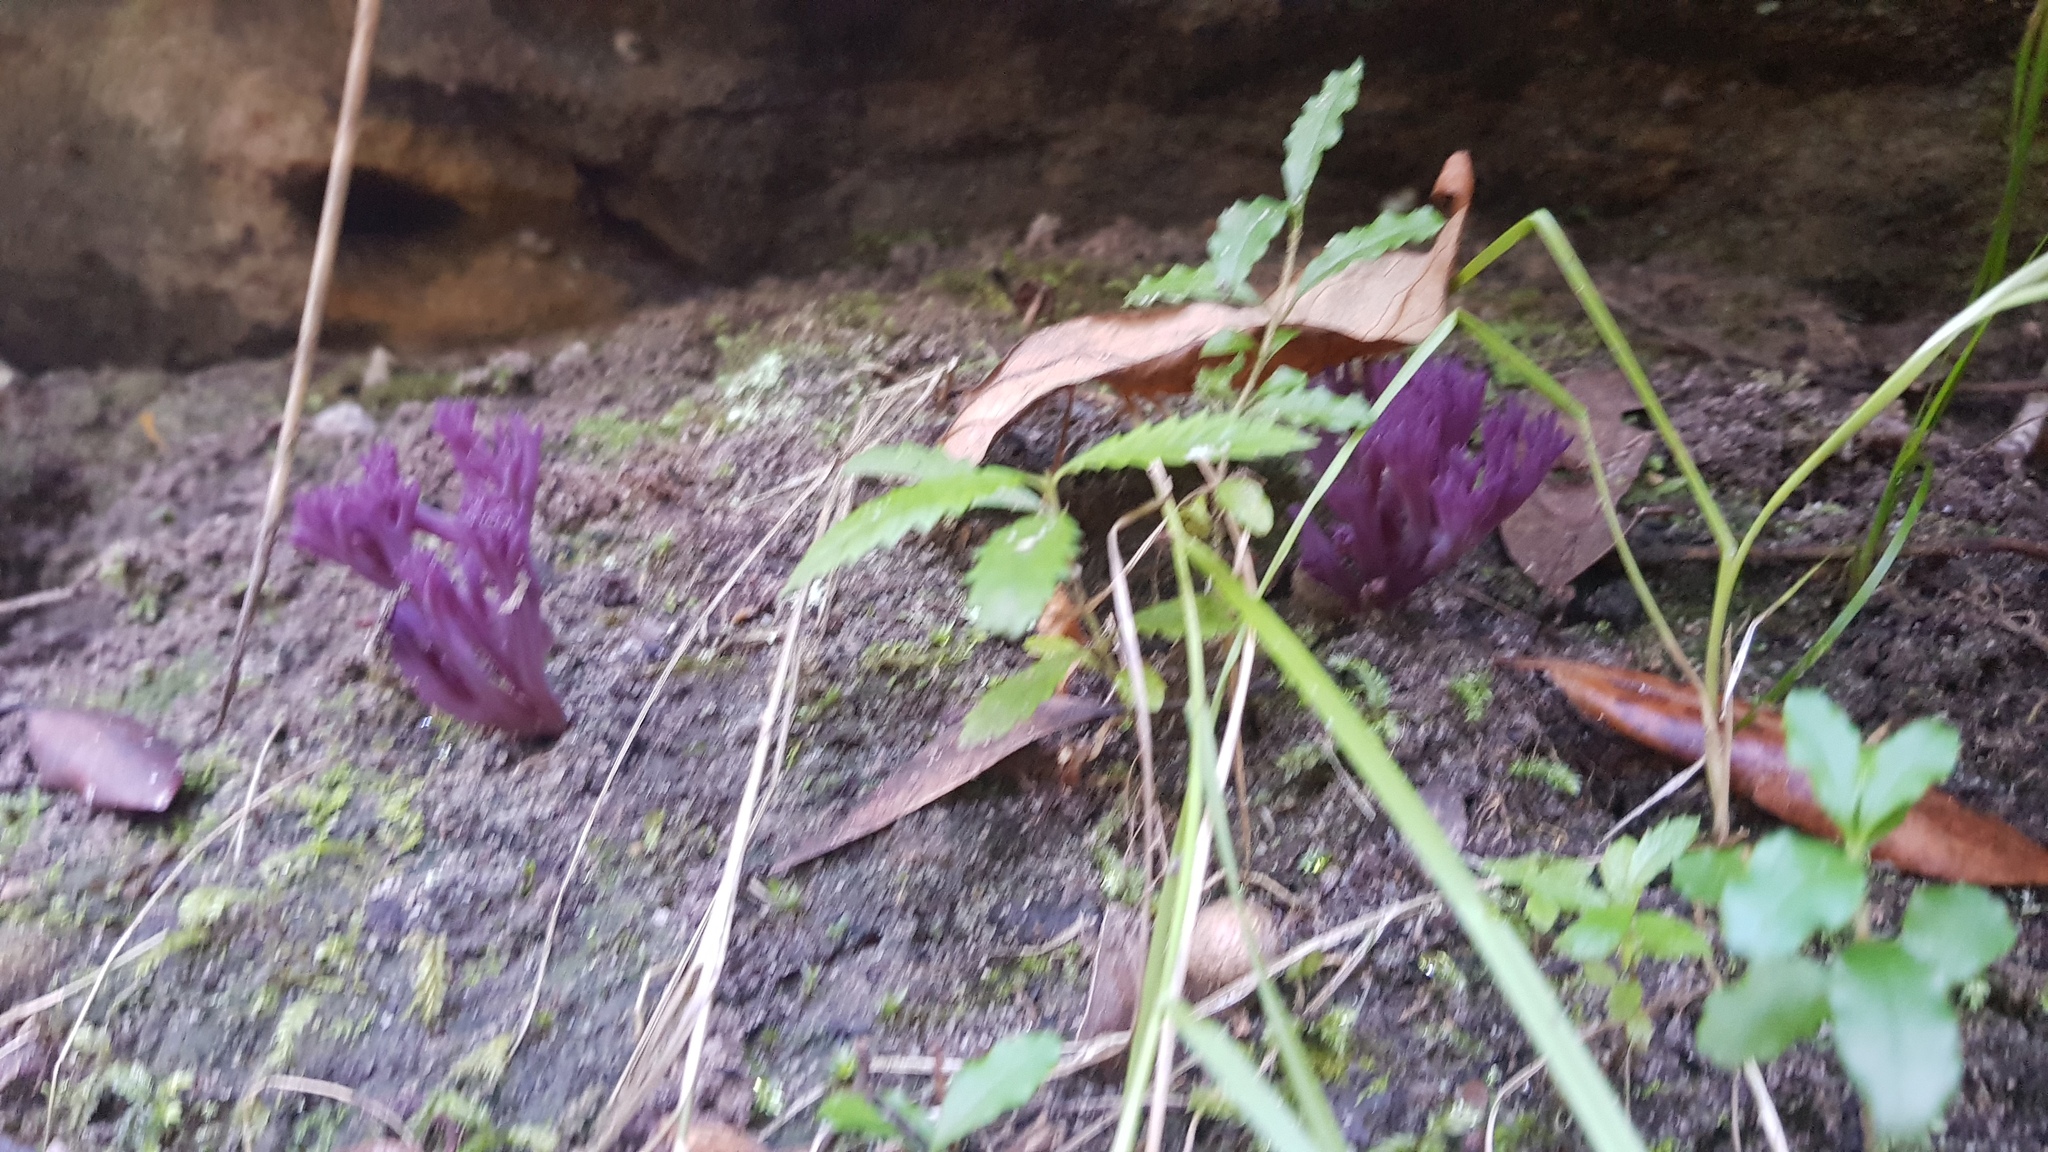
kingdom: Fungi
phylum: Basidiomycota
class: Agaricomycetes
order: Agaricales
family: Clavariaceae
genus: Clavaria
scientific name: Clavaria zollingeri
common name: Violet coral
